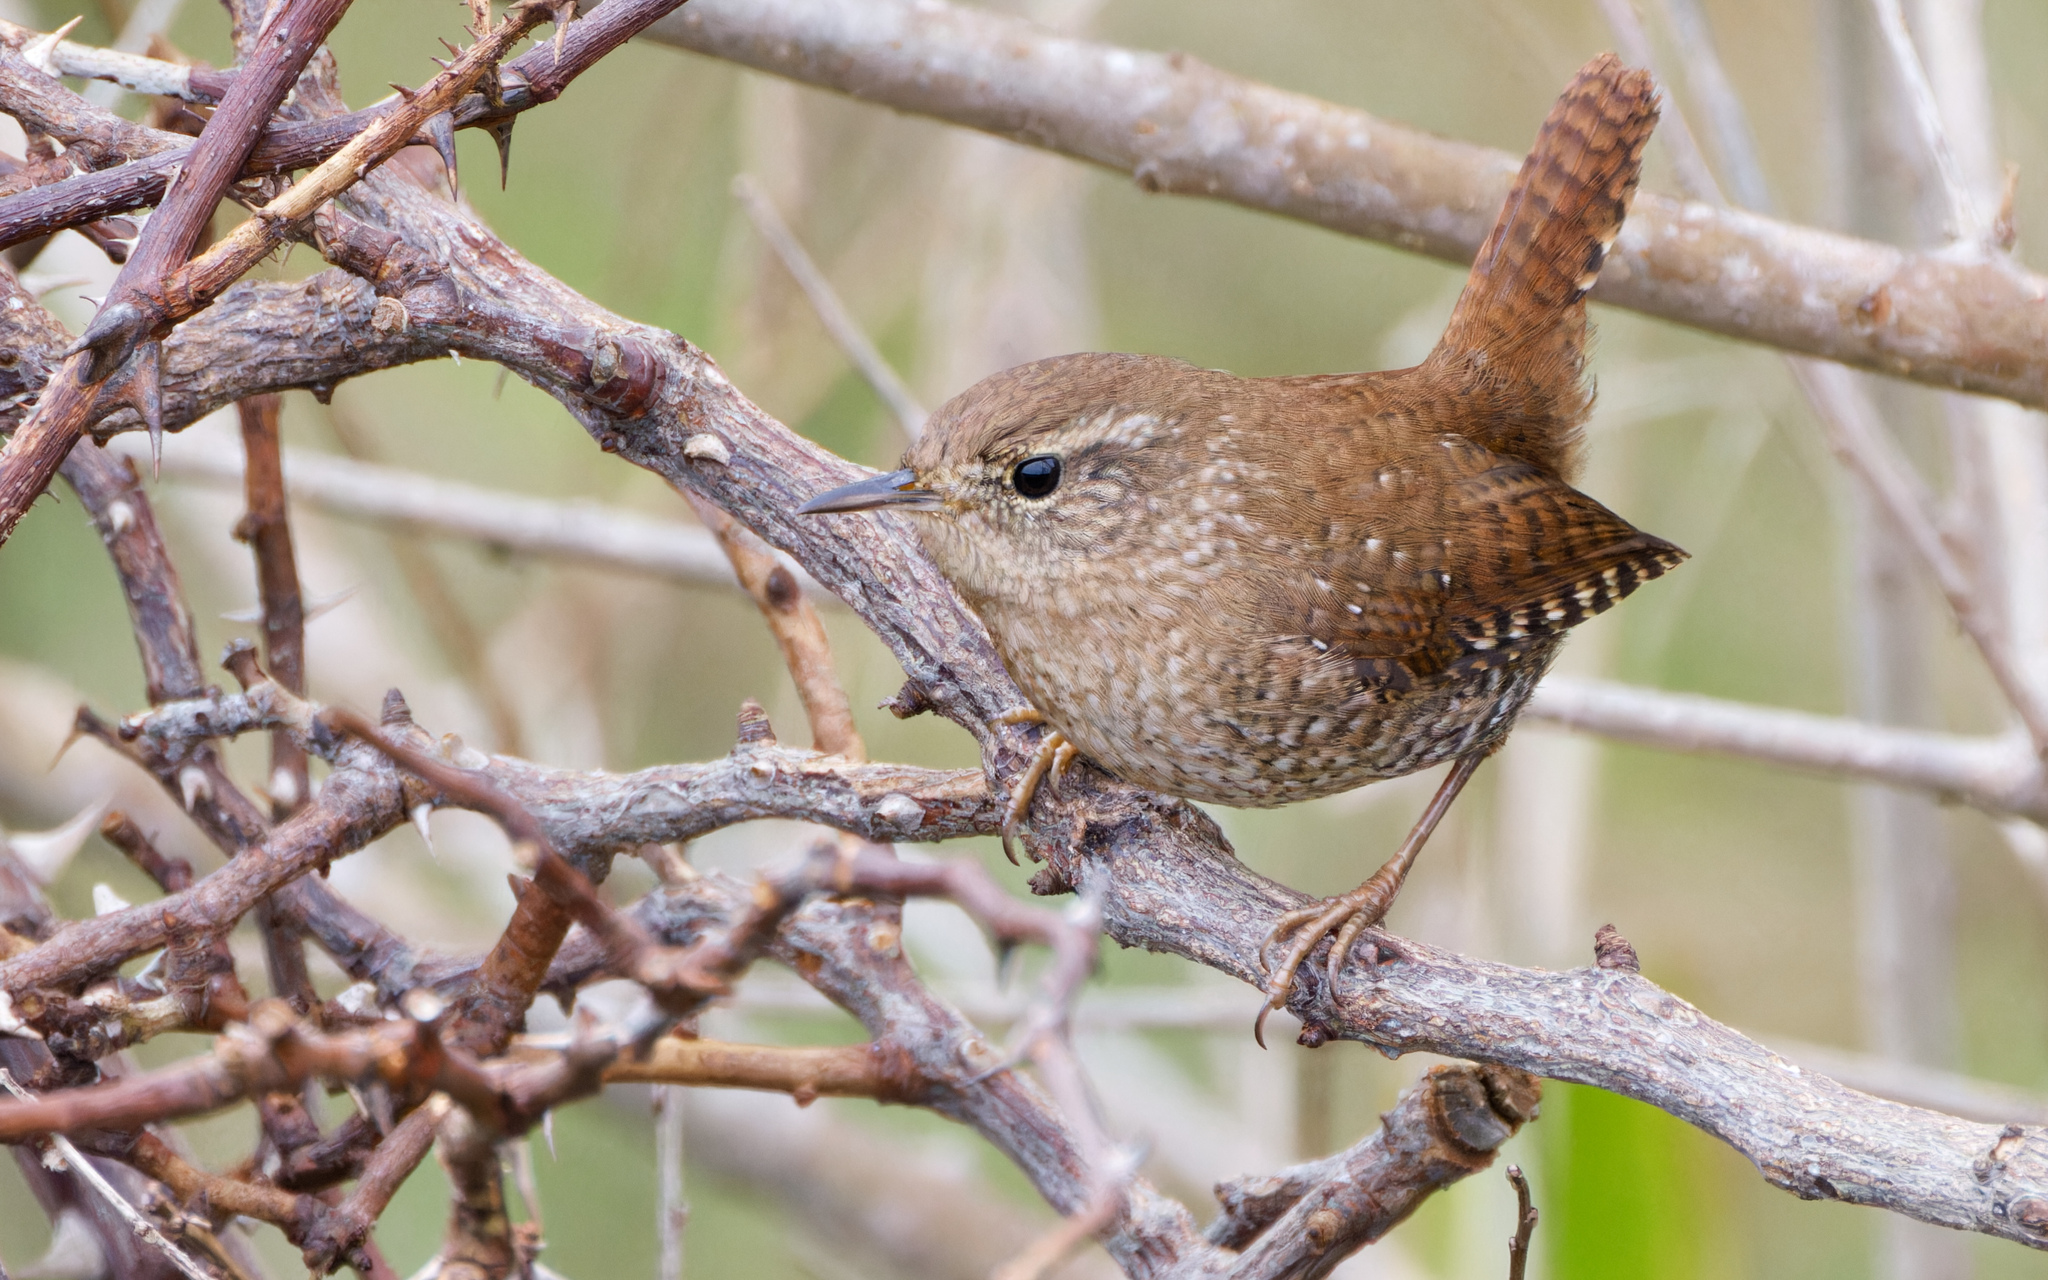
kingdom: Animalia
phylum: Chordata
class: Aves
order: Passeriformes
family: Troglodytidae
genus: Troglodytes
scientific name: Troglodytes hiemalis
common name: Winter wren
